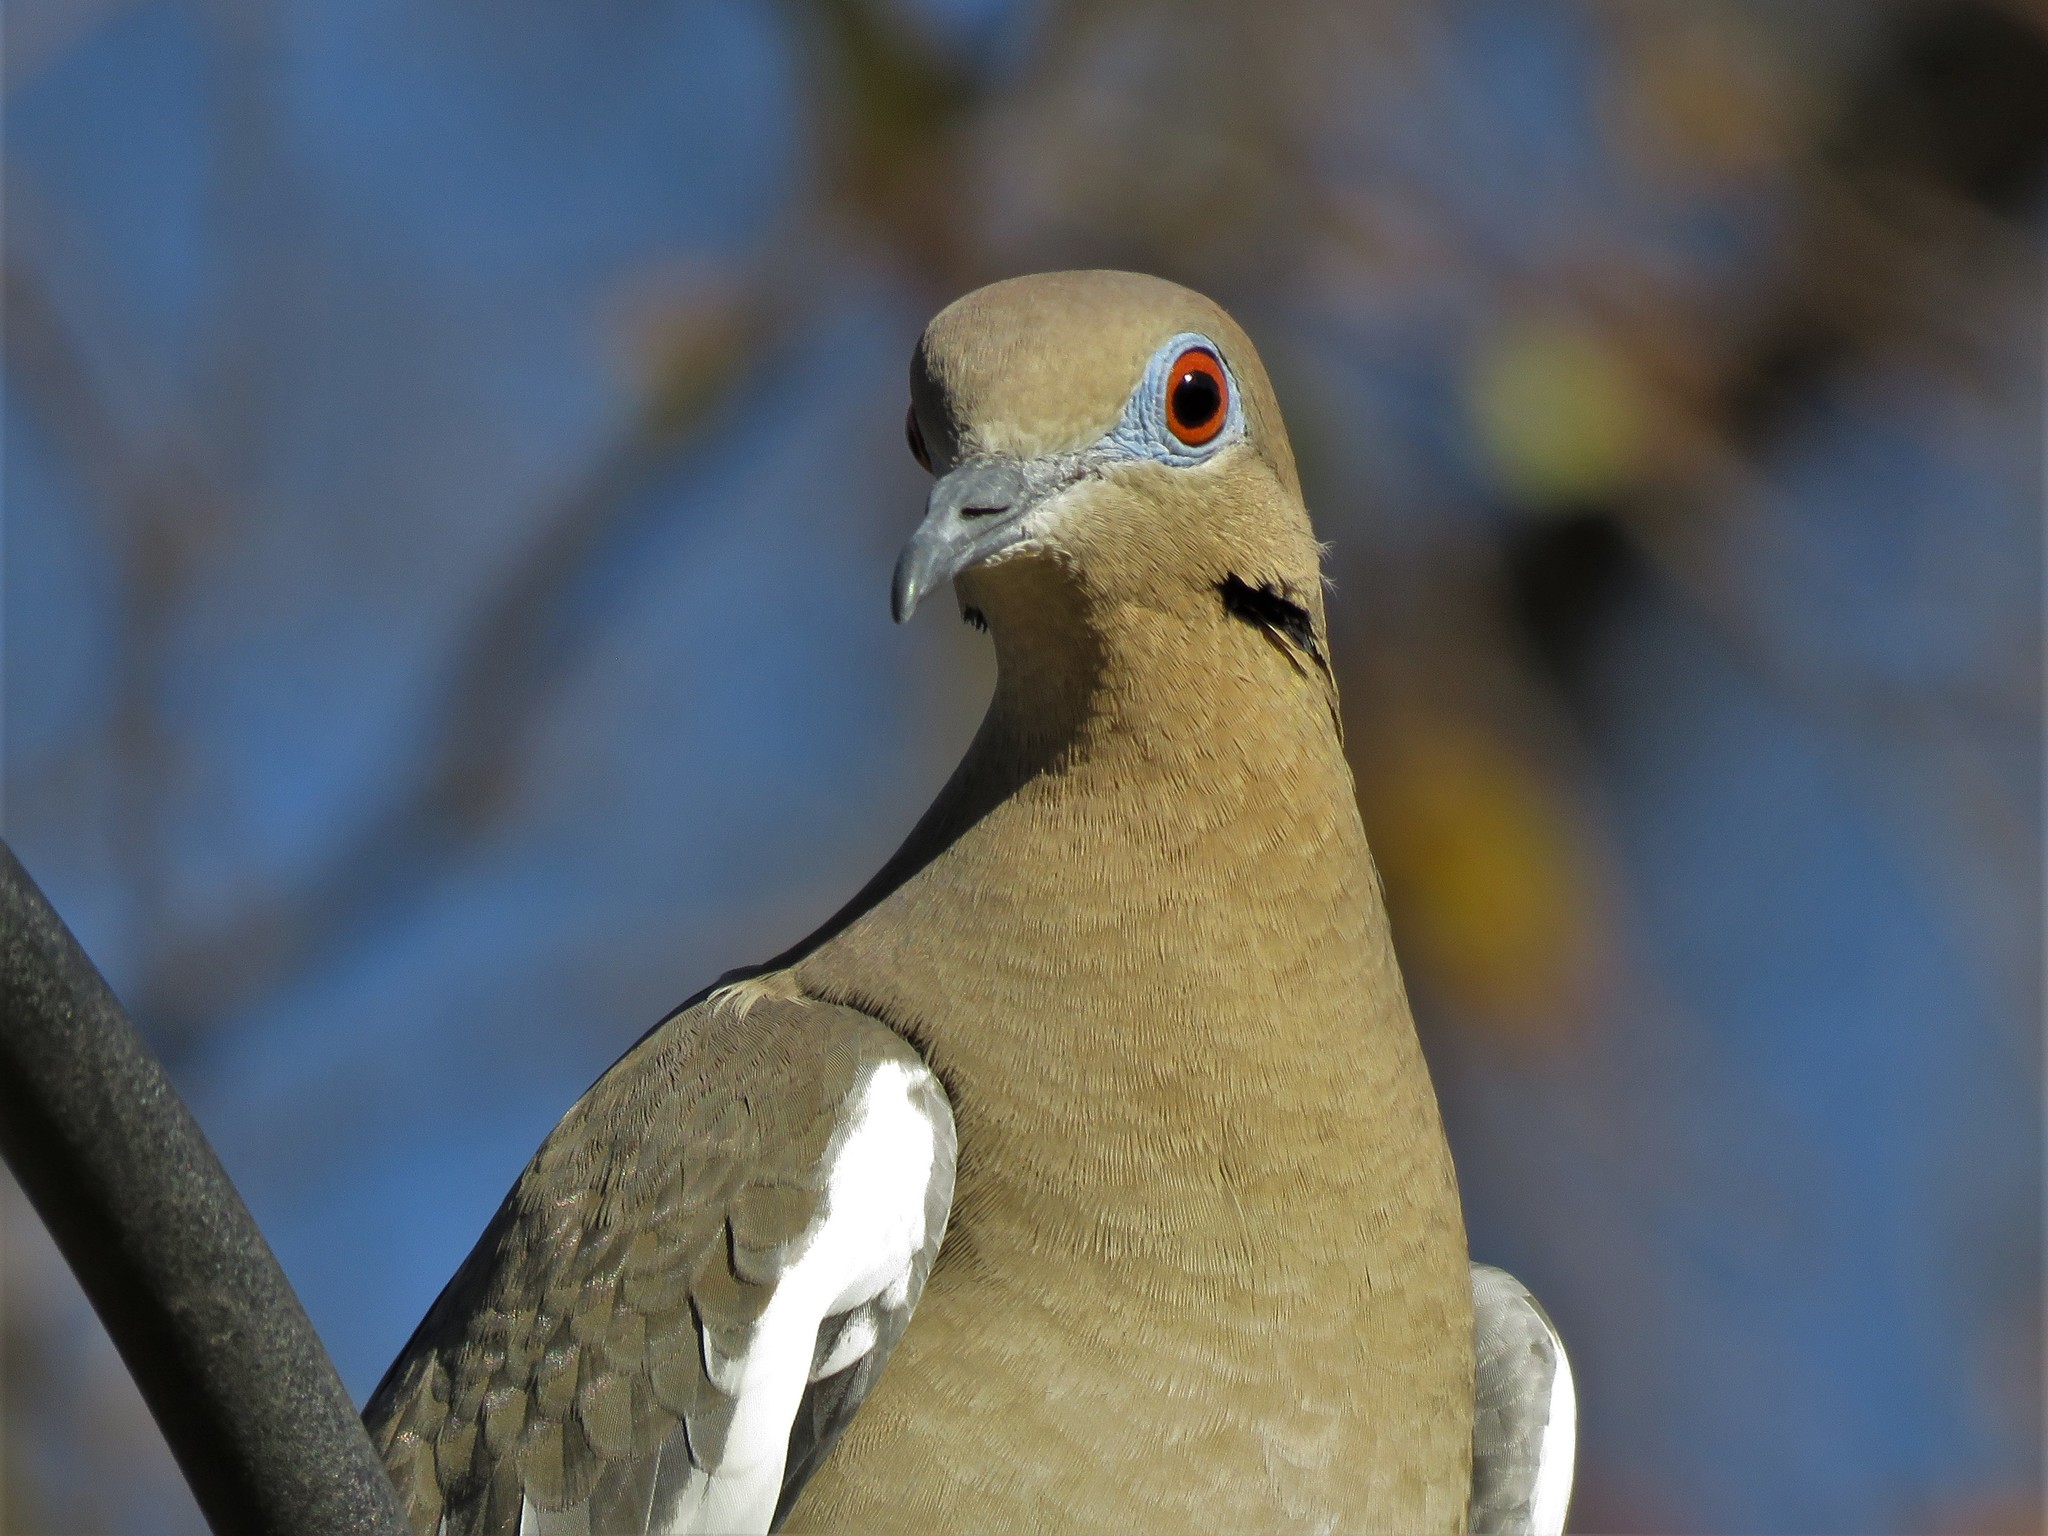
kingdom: Animalia
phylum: Chordata
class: Aves
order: Columbiformes
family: Columbidae
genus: Zenaida
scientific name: Zenaida asiatica
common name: White-winged dove
